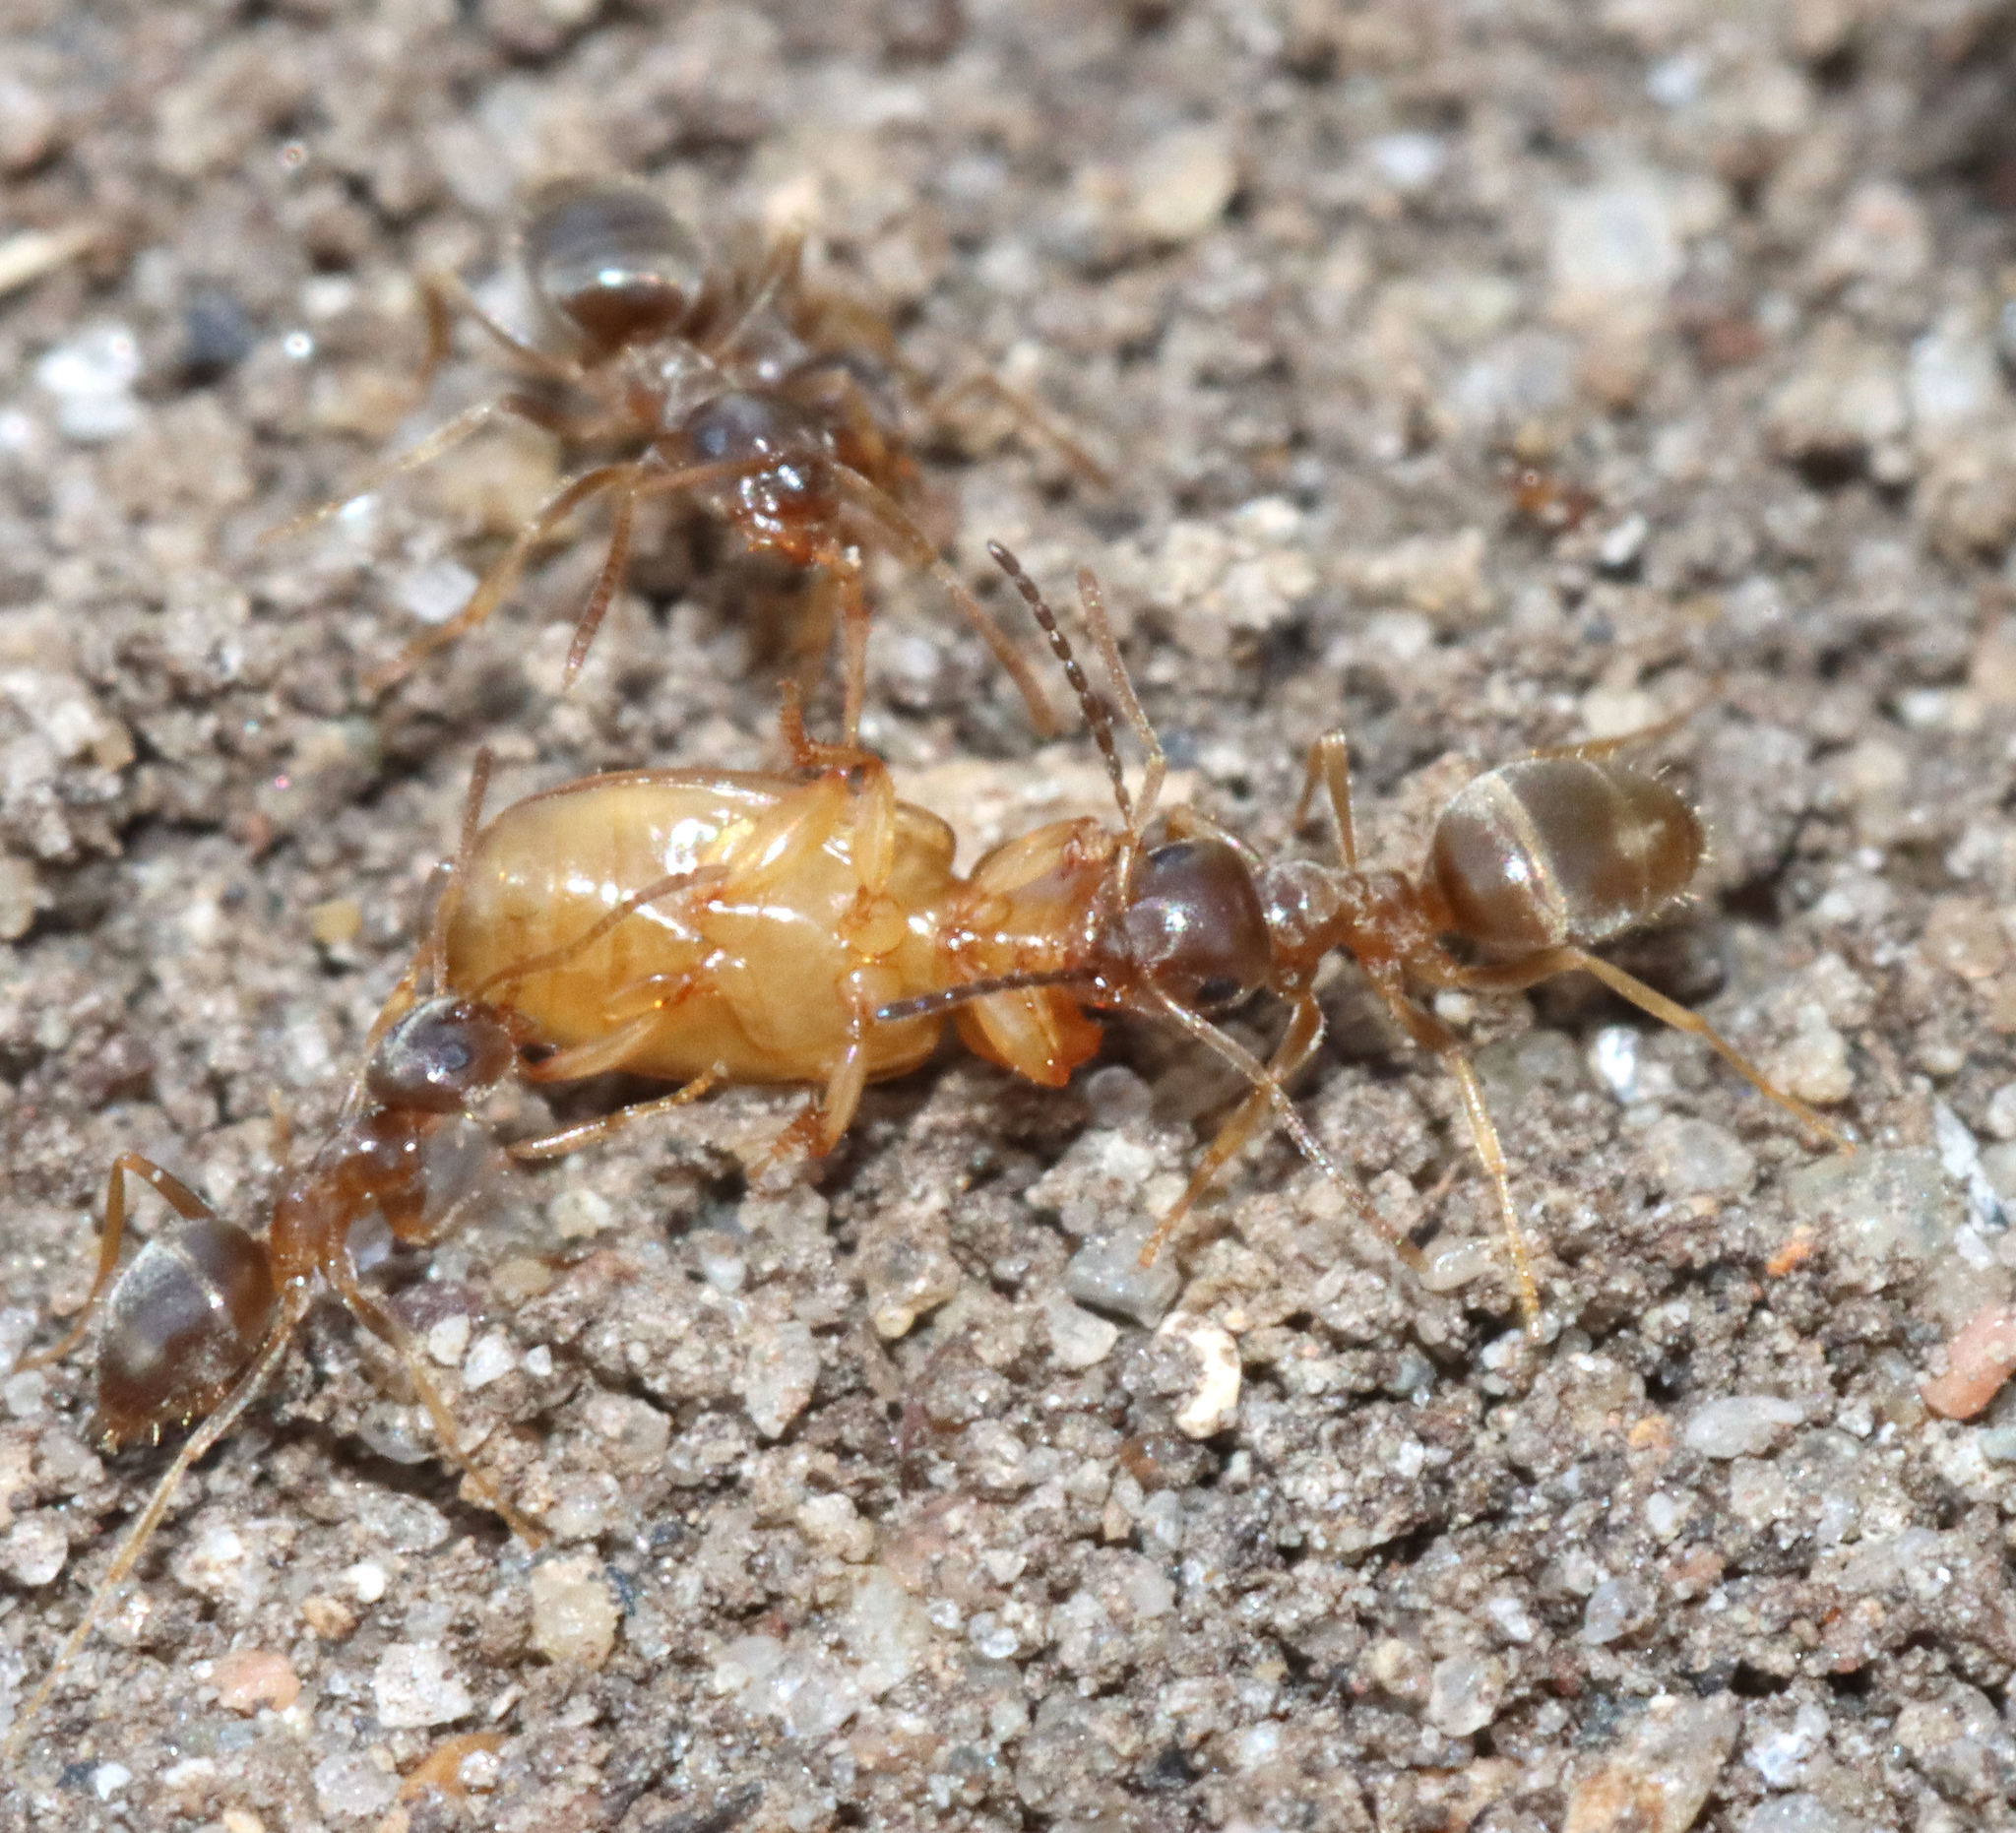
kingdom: Animalia
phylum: Arthropoda
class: Insecta
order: Hymenoptera
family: Formicidae
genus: Lasius
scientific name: Lasius neoniger
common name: Turfgrass ant
